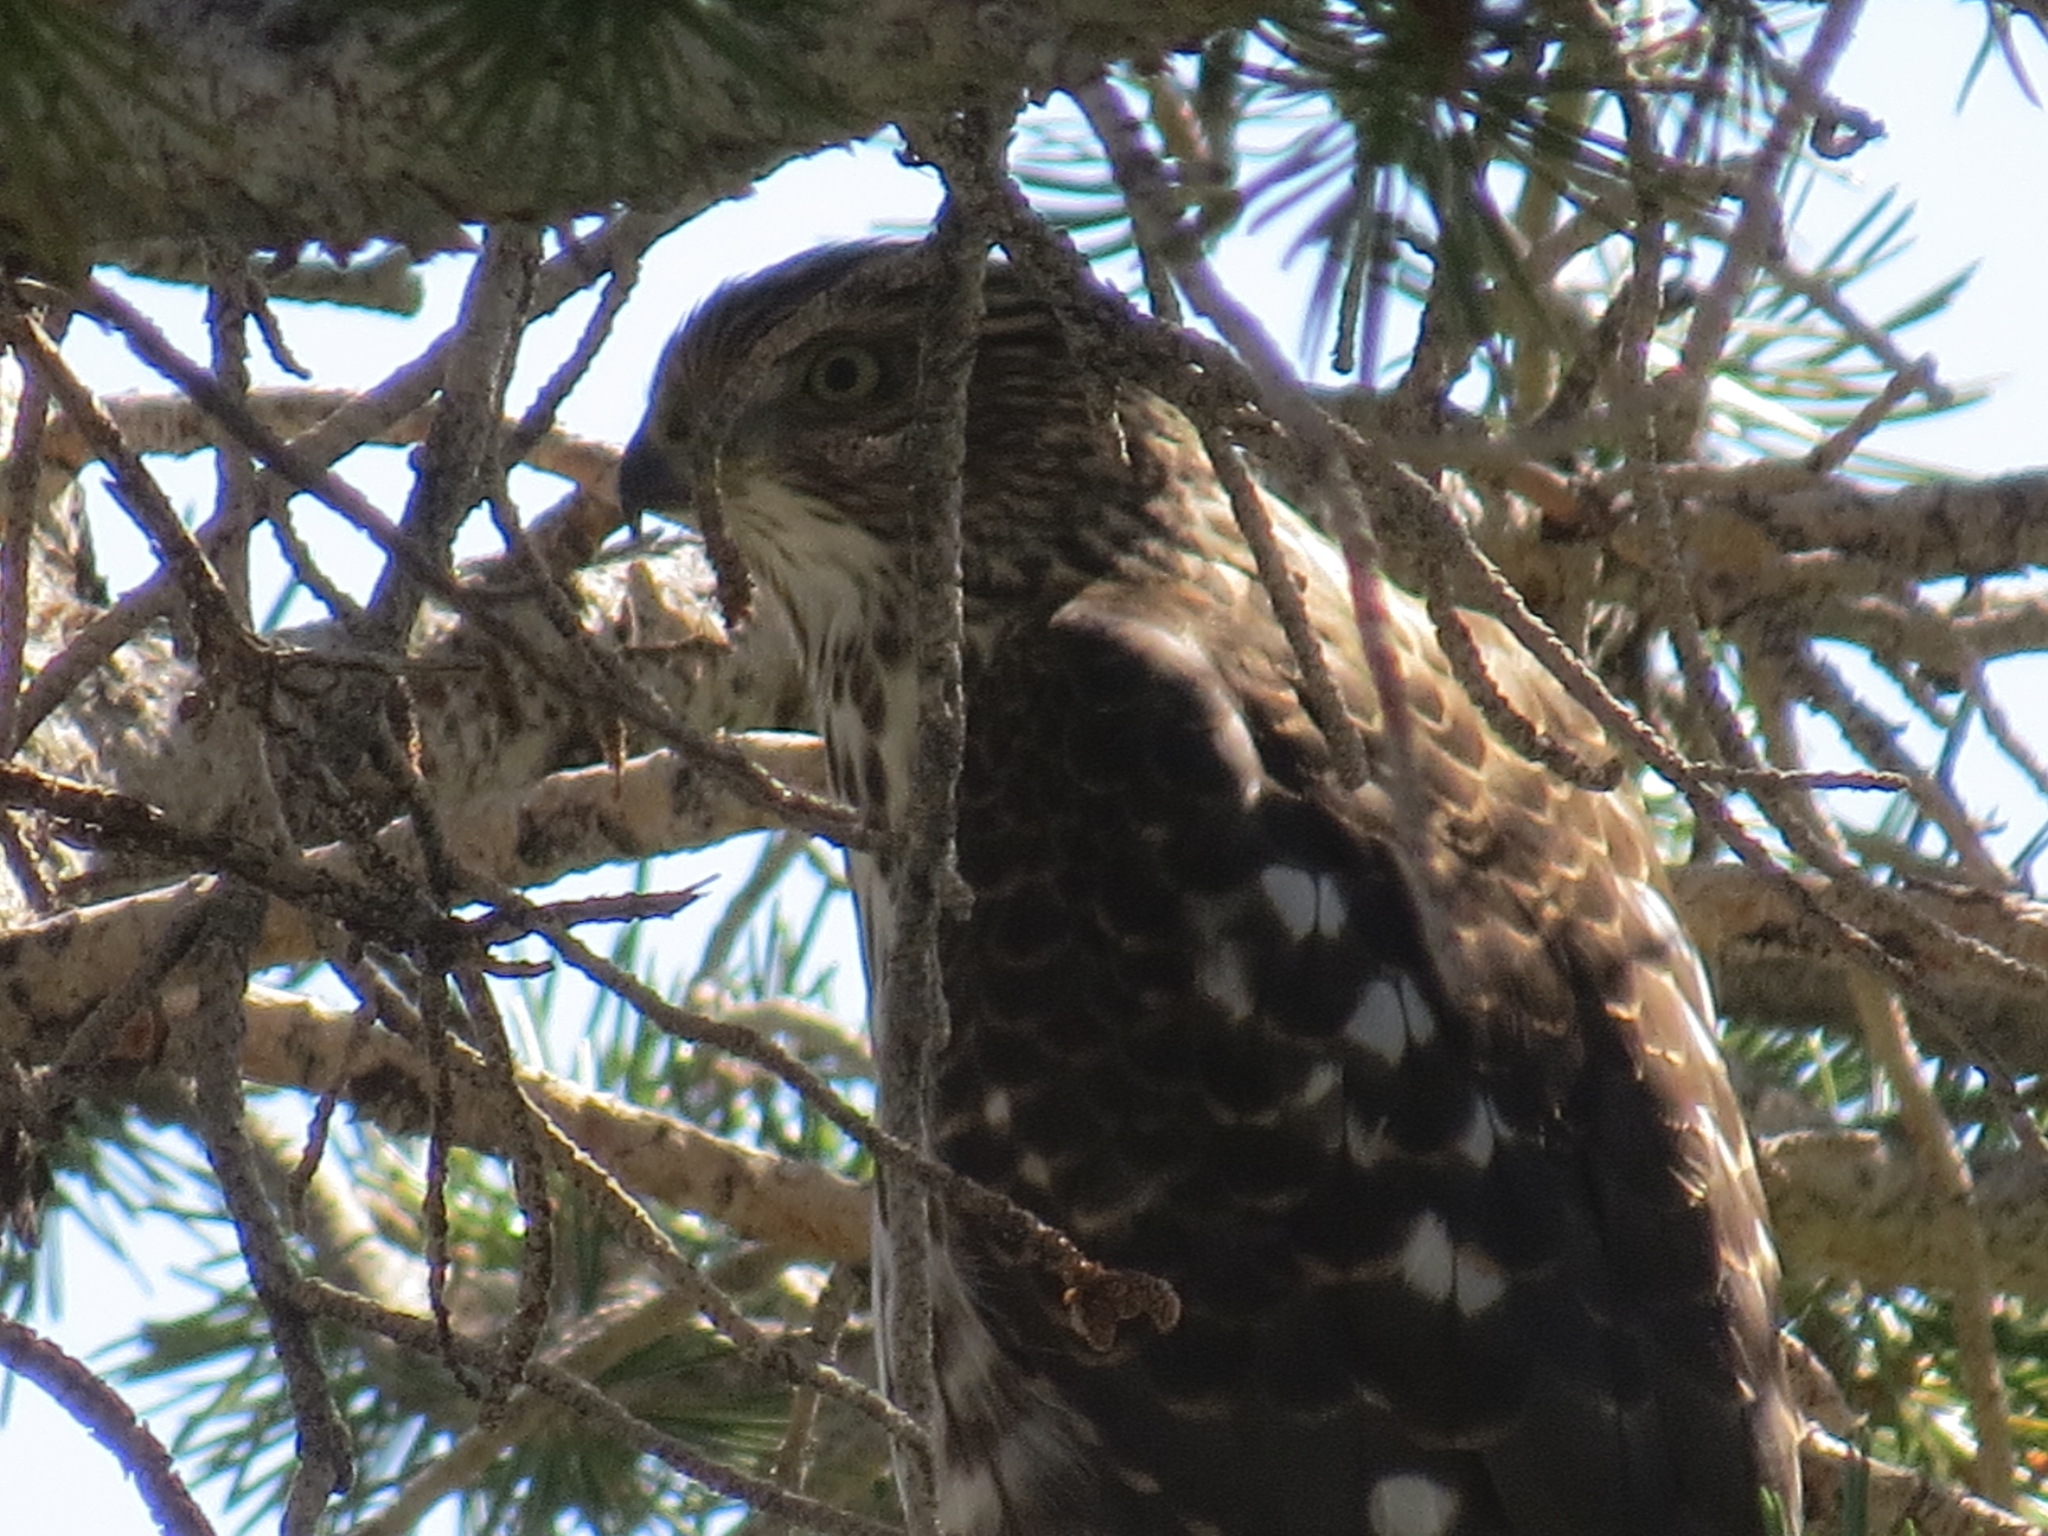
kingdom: Animalia
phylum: Chordata
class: Aves
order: Accipitriformes
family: Accipitridae
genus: Accipiter
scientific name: Accipiter cooperii
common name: Cooper's hawk
